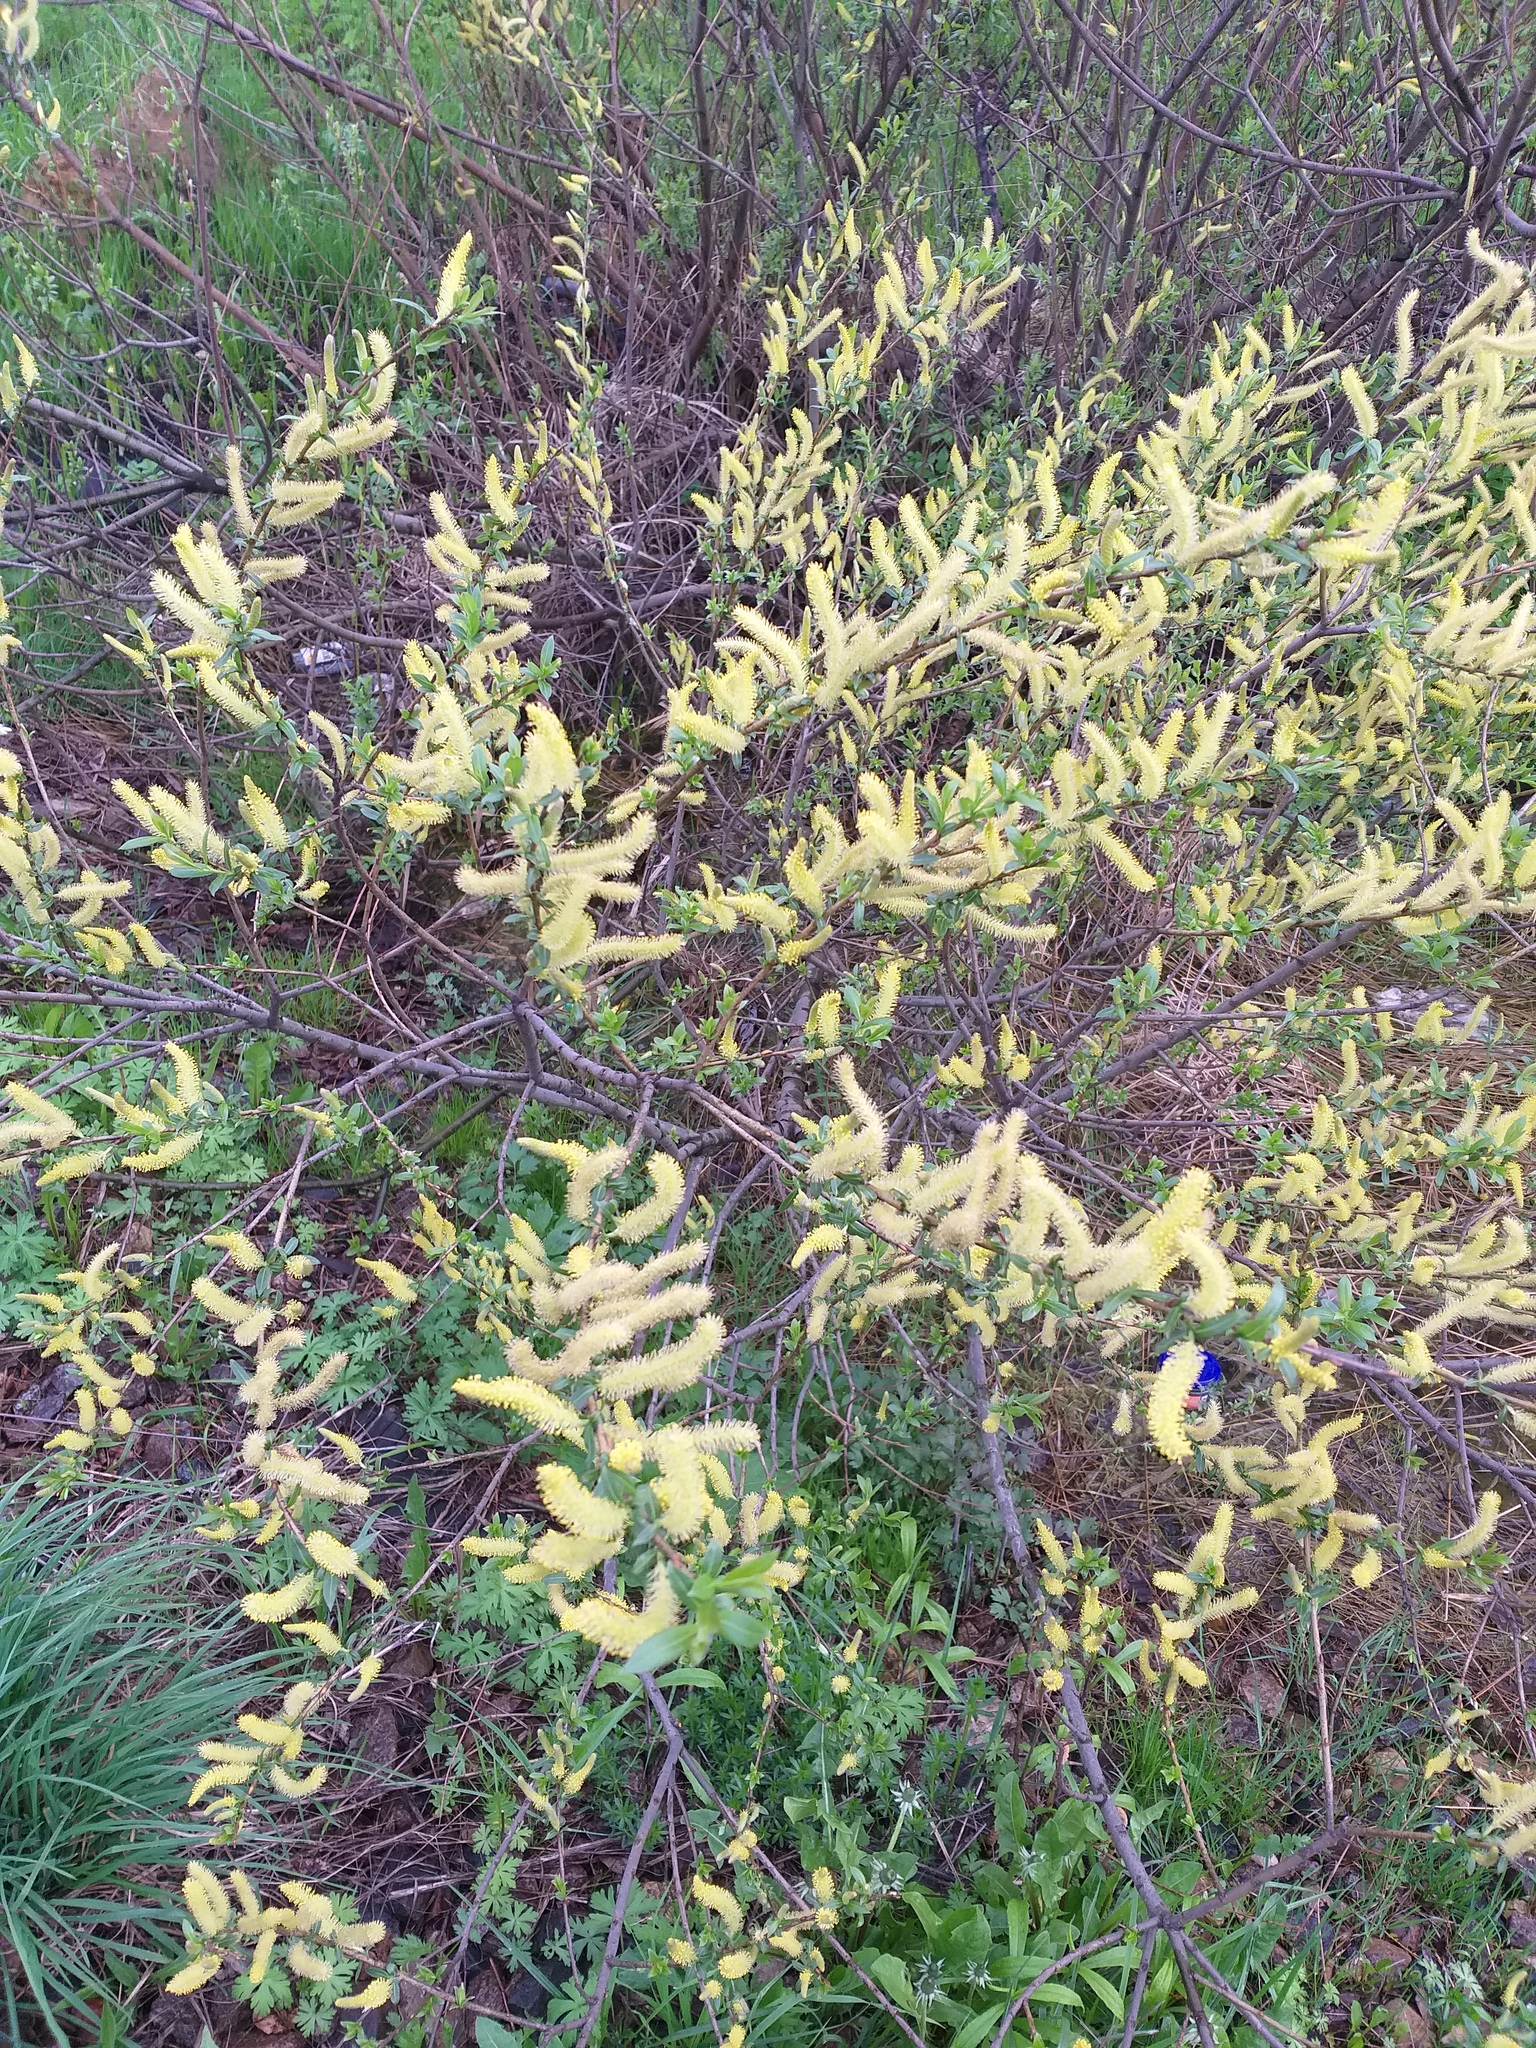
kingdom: Plantae
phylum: Tracheophyta
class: Magnoliopsida
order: Malpighiales
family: Salicaceae
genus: Salix
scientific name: Salix triandra
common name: Almond willow
